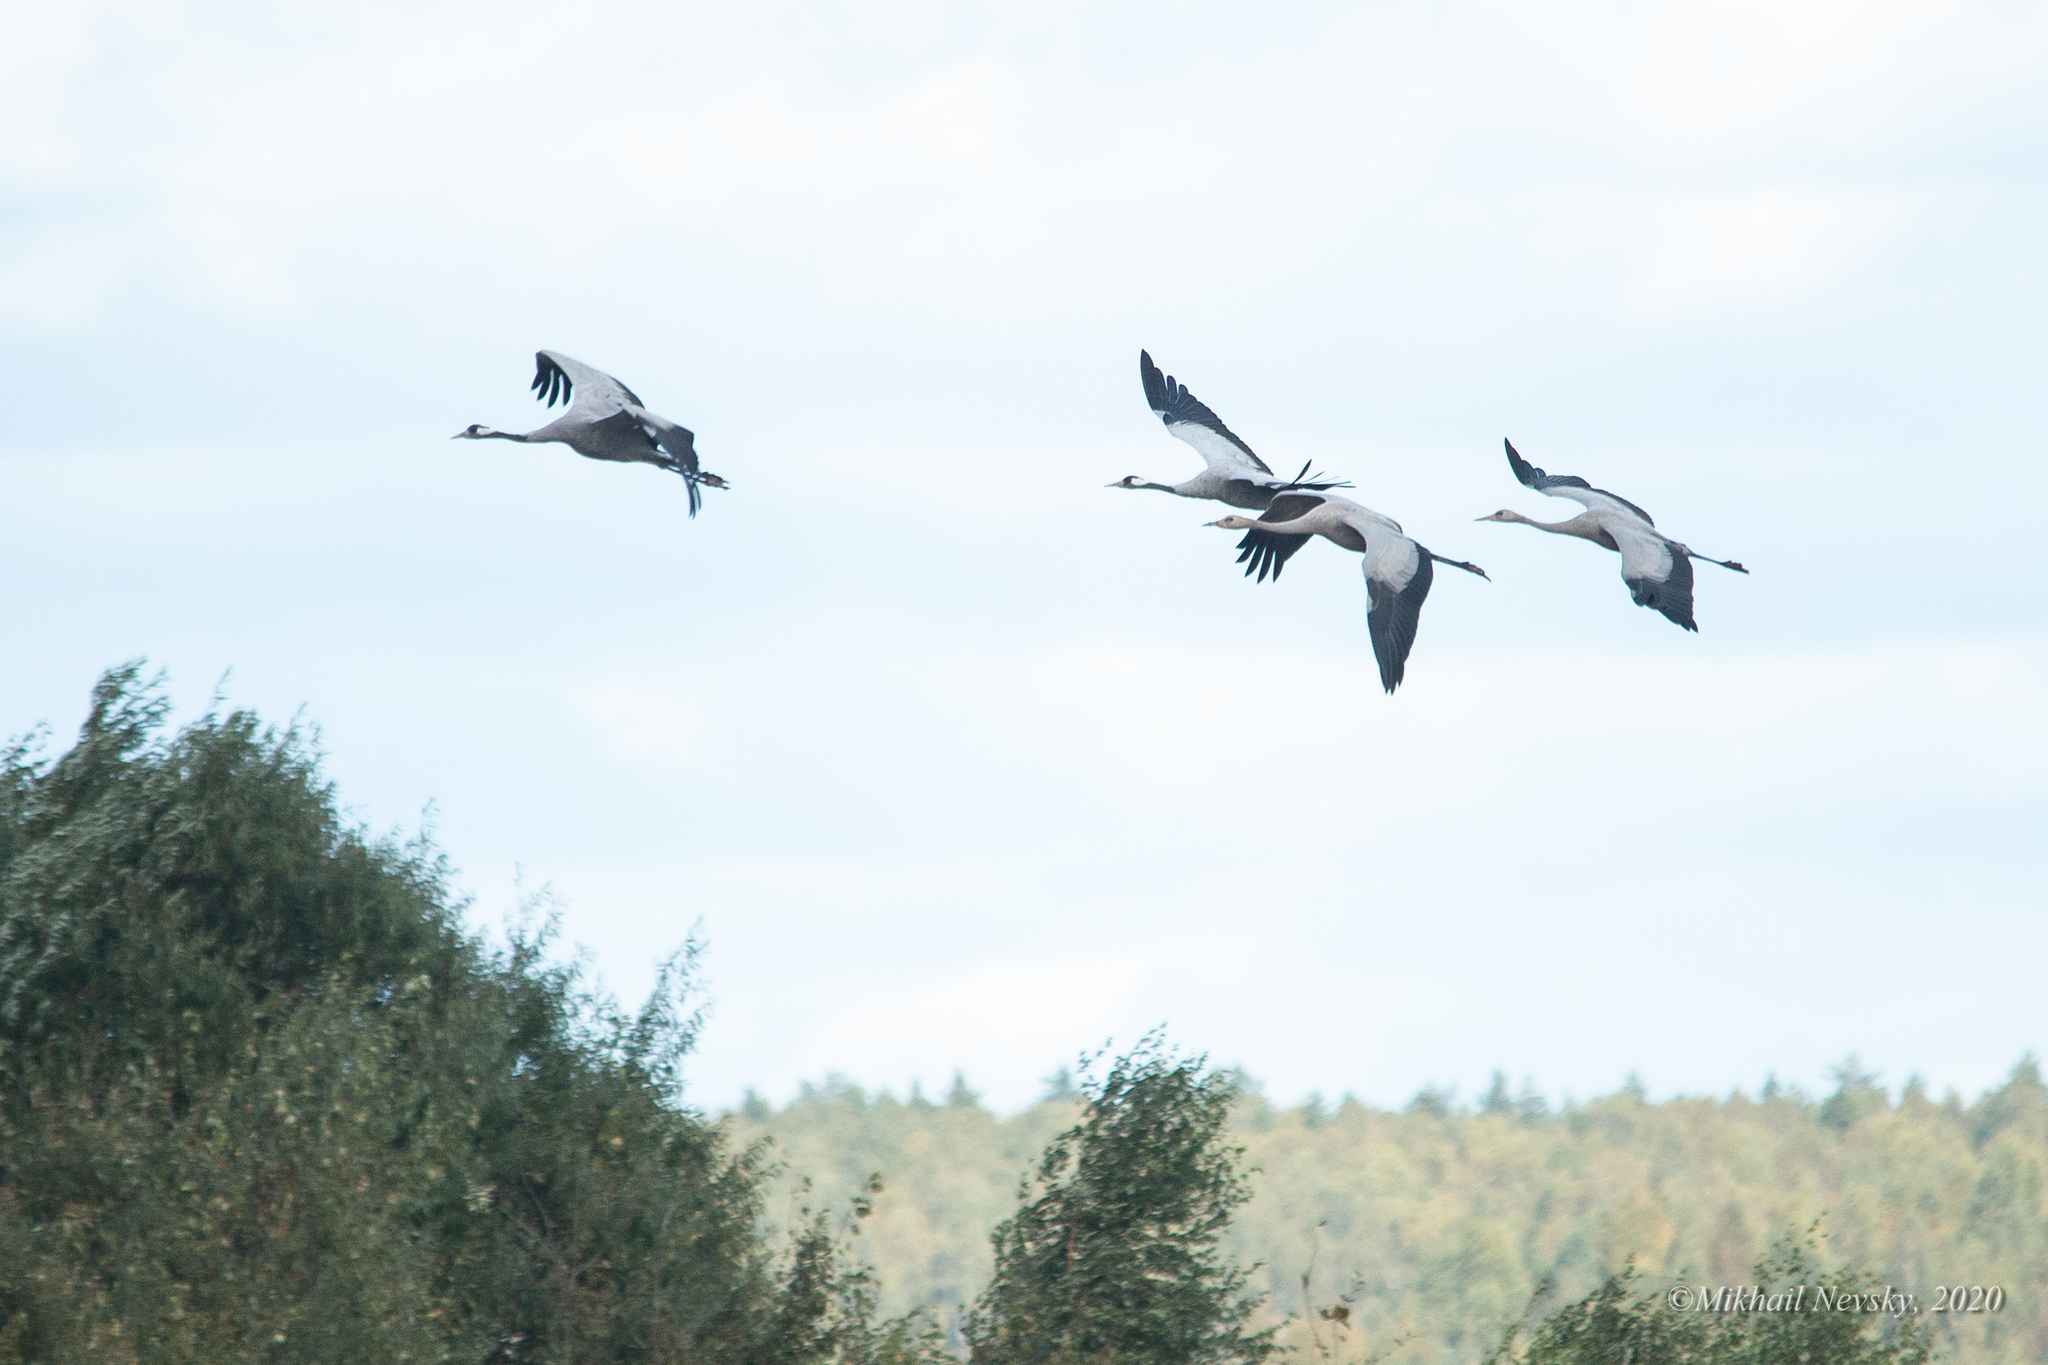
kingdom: Animalia
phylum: Chordata
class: Aves
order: Gruiformes
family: Gruidae
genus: Grus
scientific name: Grus grus
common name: Common crane
